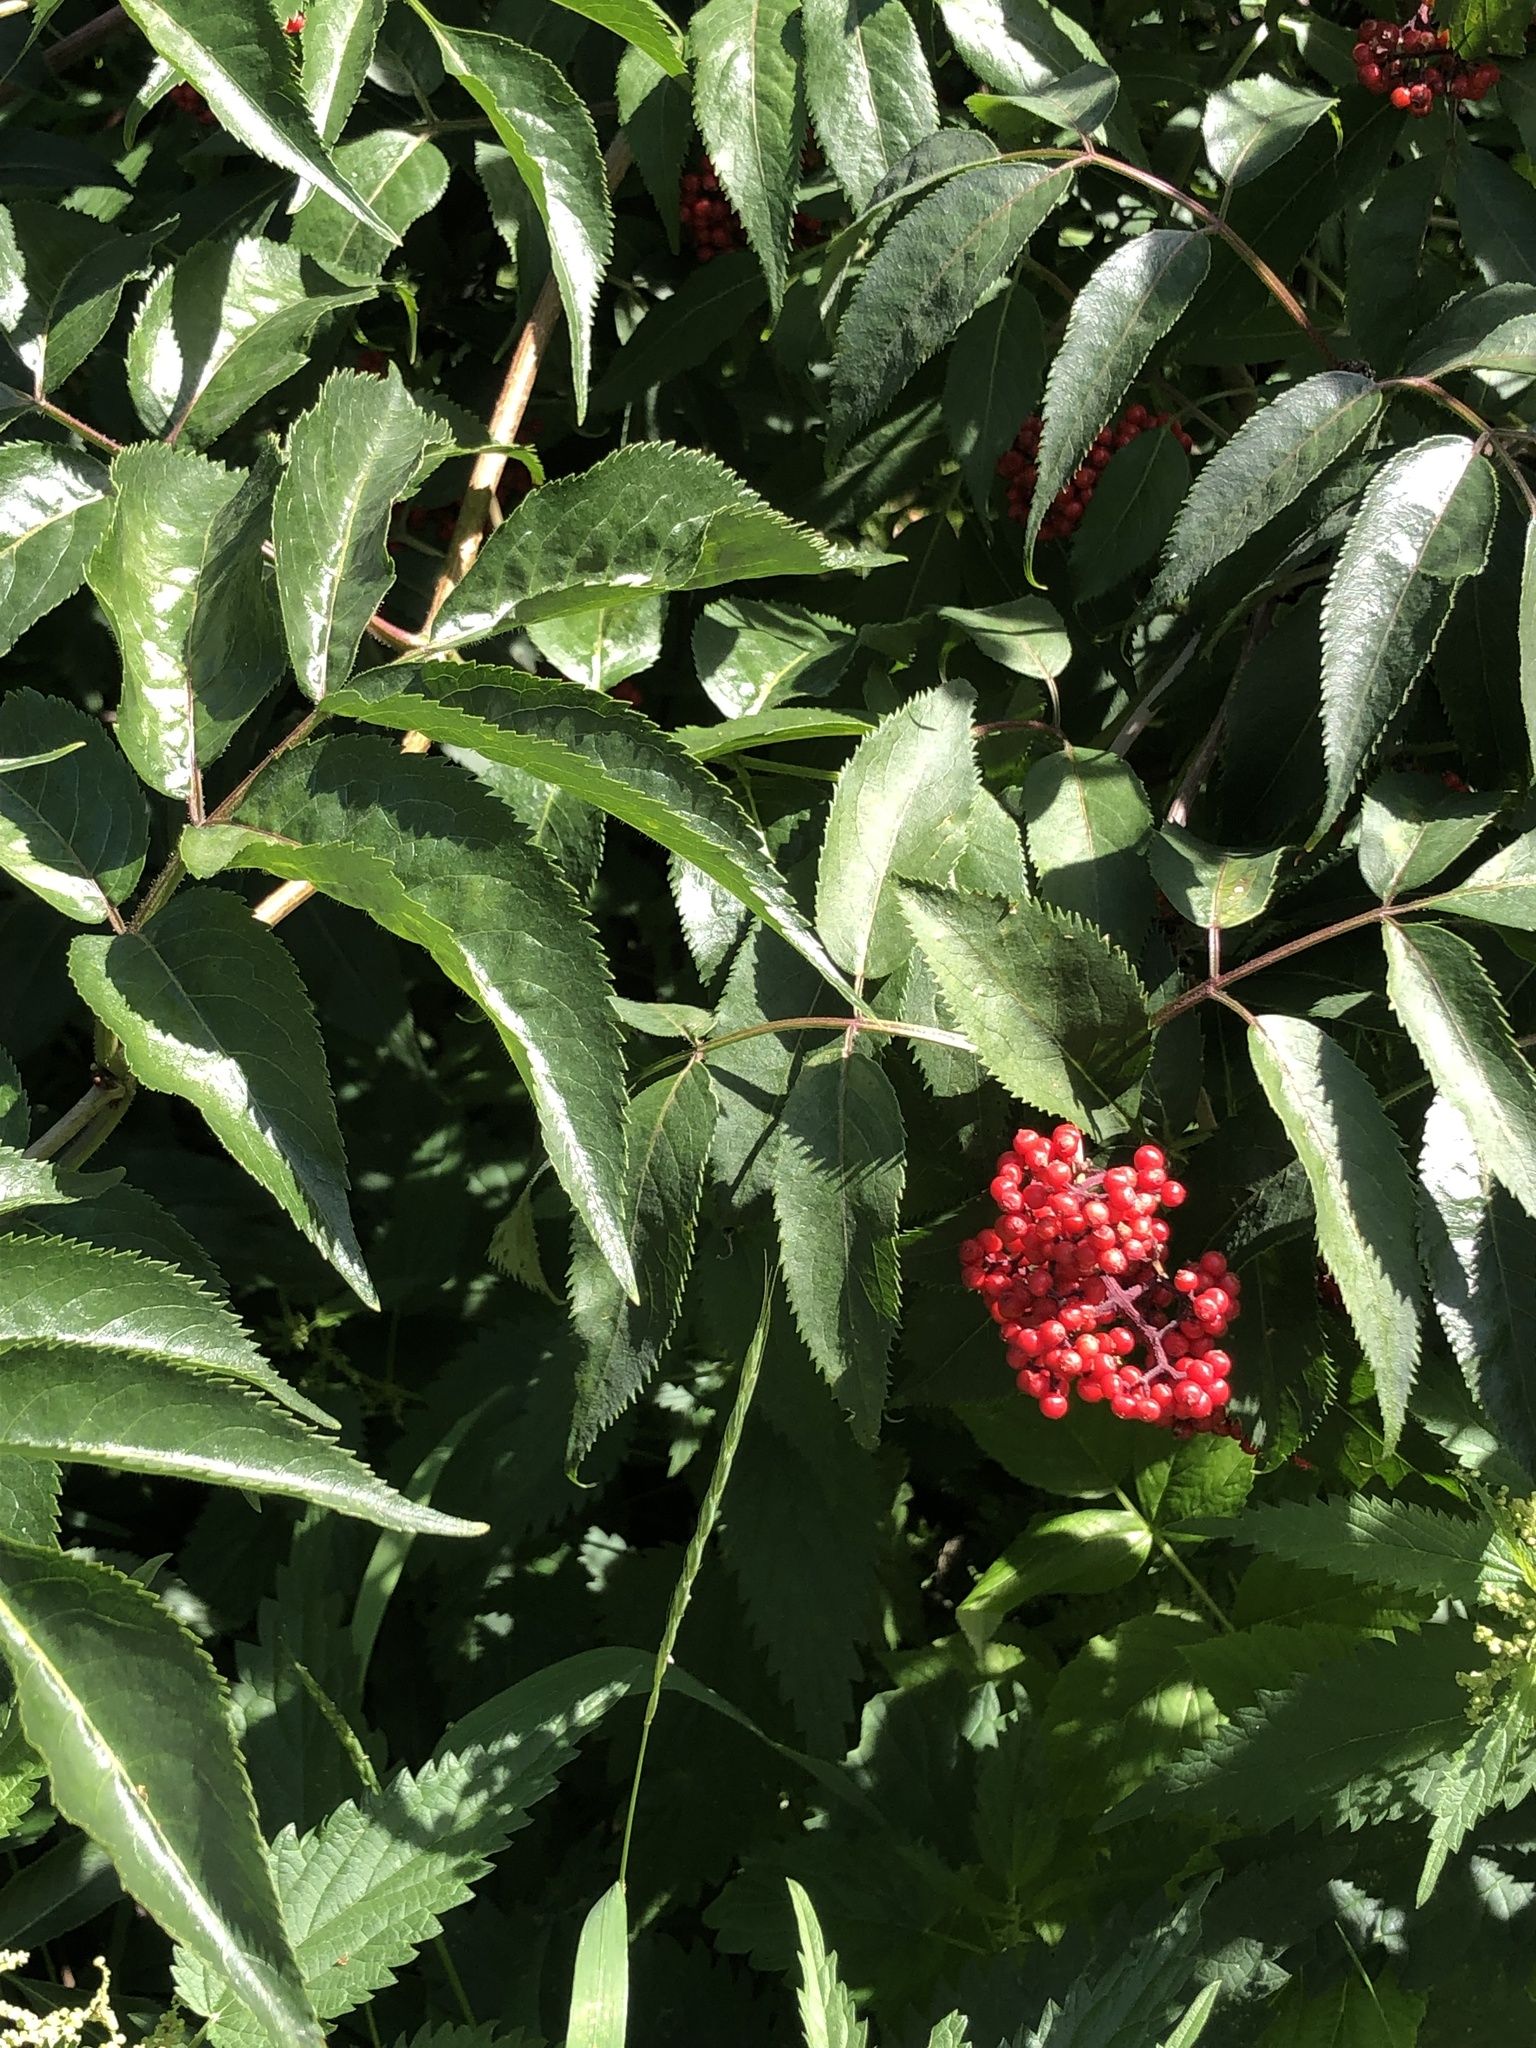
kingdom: Plantae
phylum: Tracheophyta
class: Magnoliopsida
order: Dipsacales
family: Viburnaceae
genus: Sambucus
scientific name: Sambucus racemosa
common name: Red-berried elder
